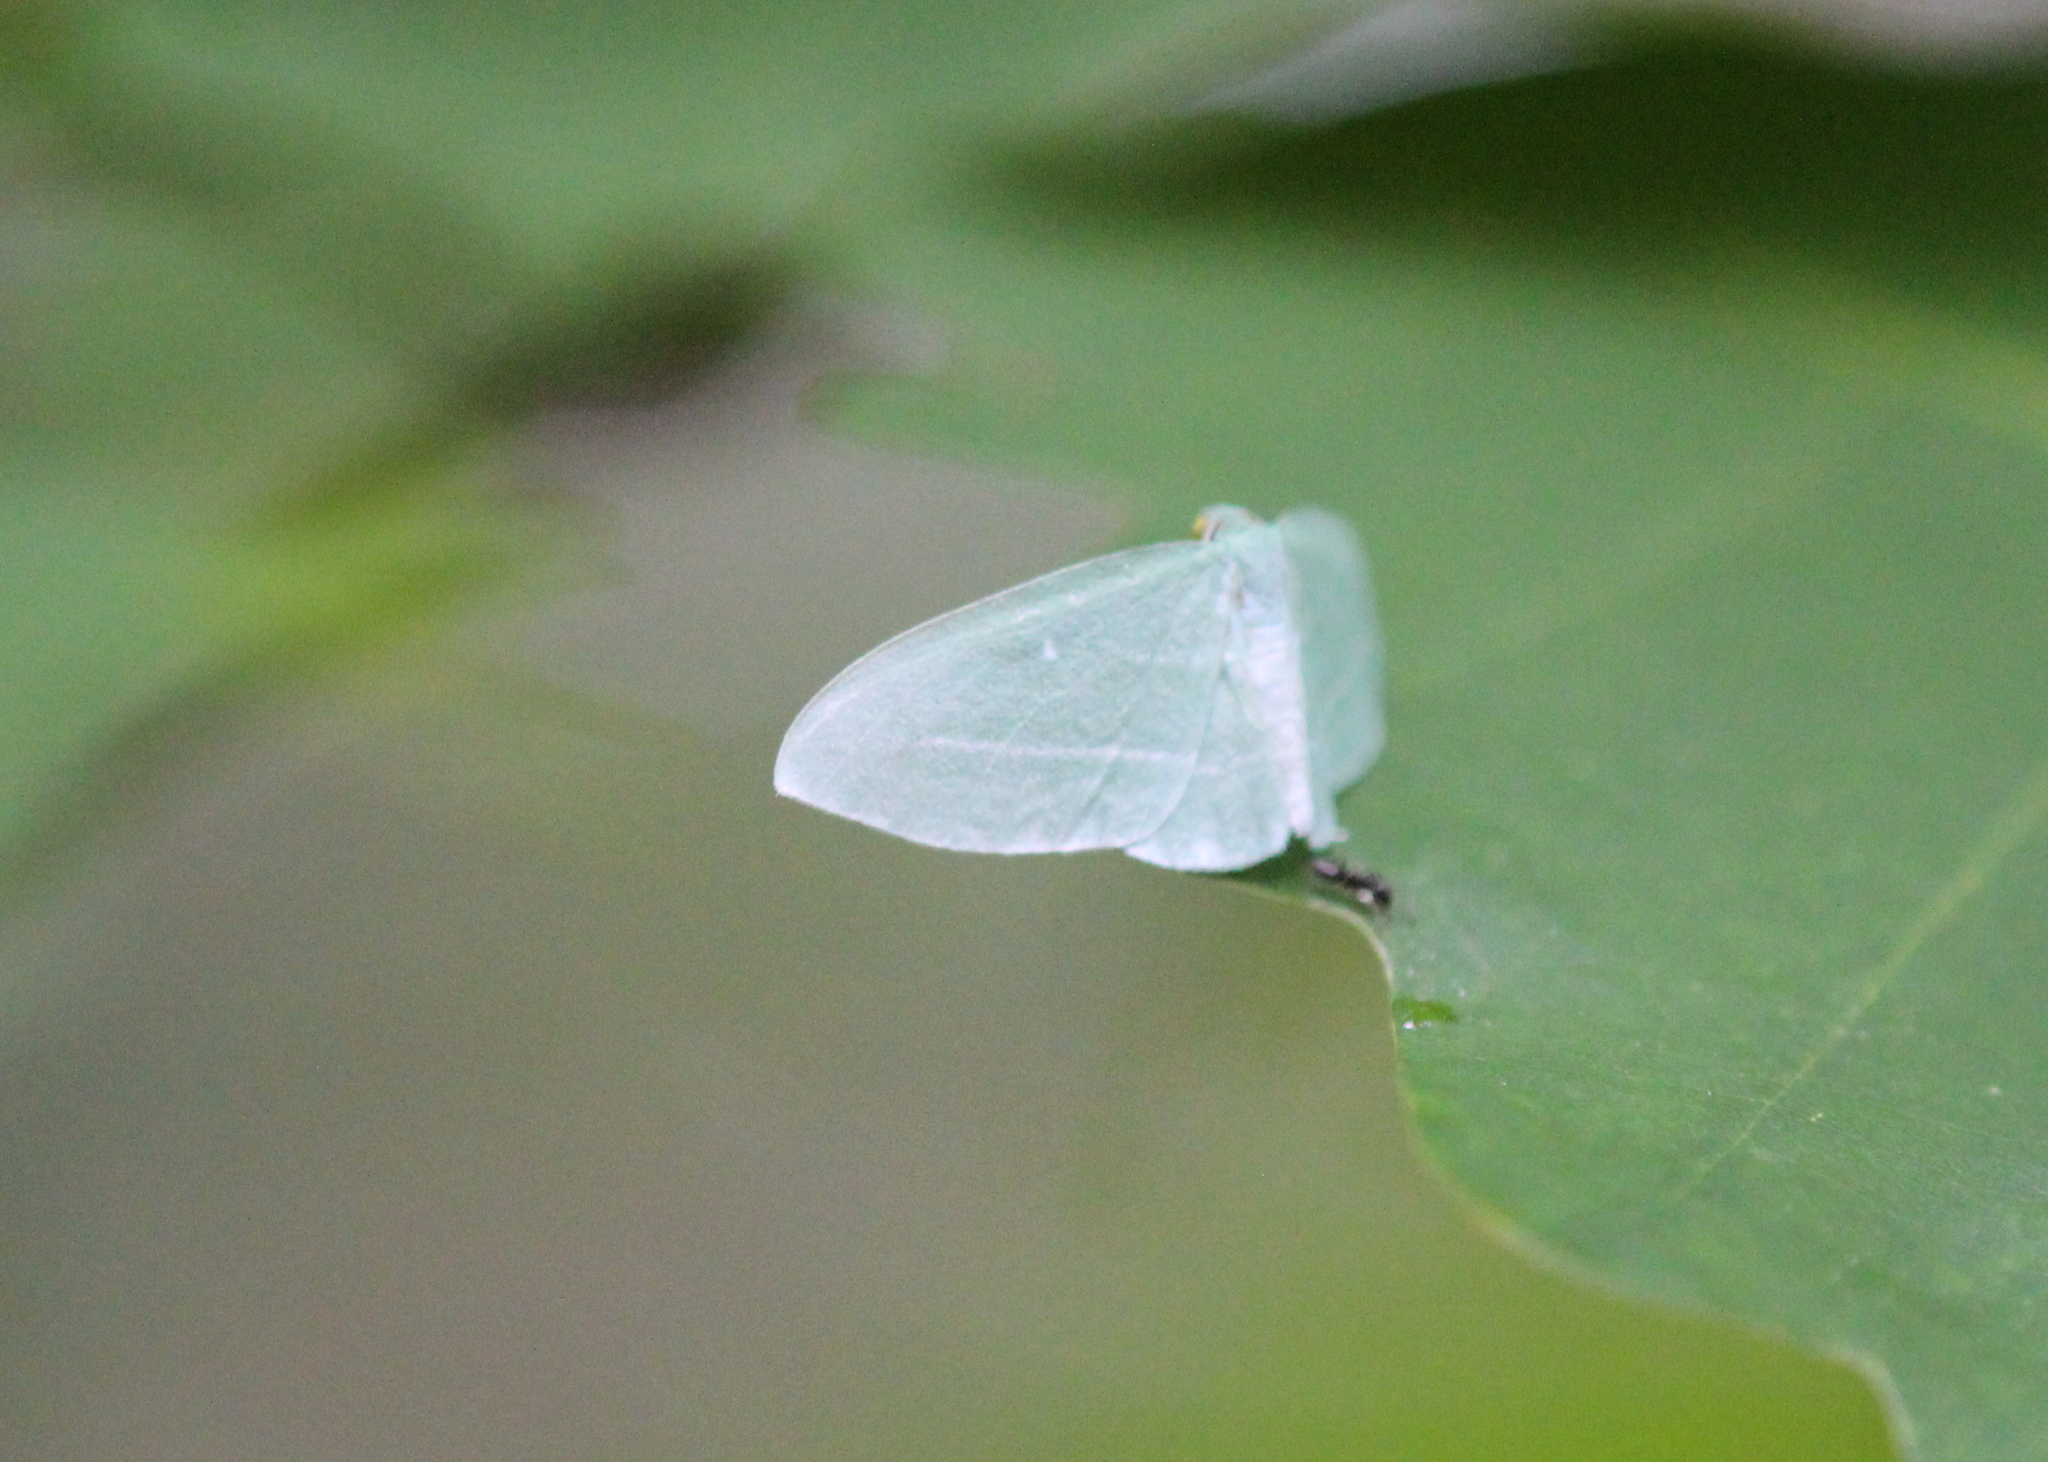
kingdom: Animalia
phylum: Arthropoda
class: Insecta
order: Lepidoptera
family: Geometridae
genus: Dyspteris
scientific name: Dyspteris abortivaria
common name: Bad-wing
